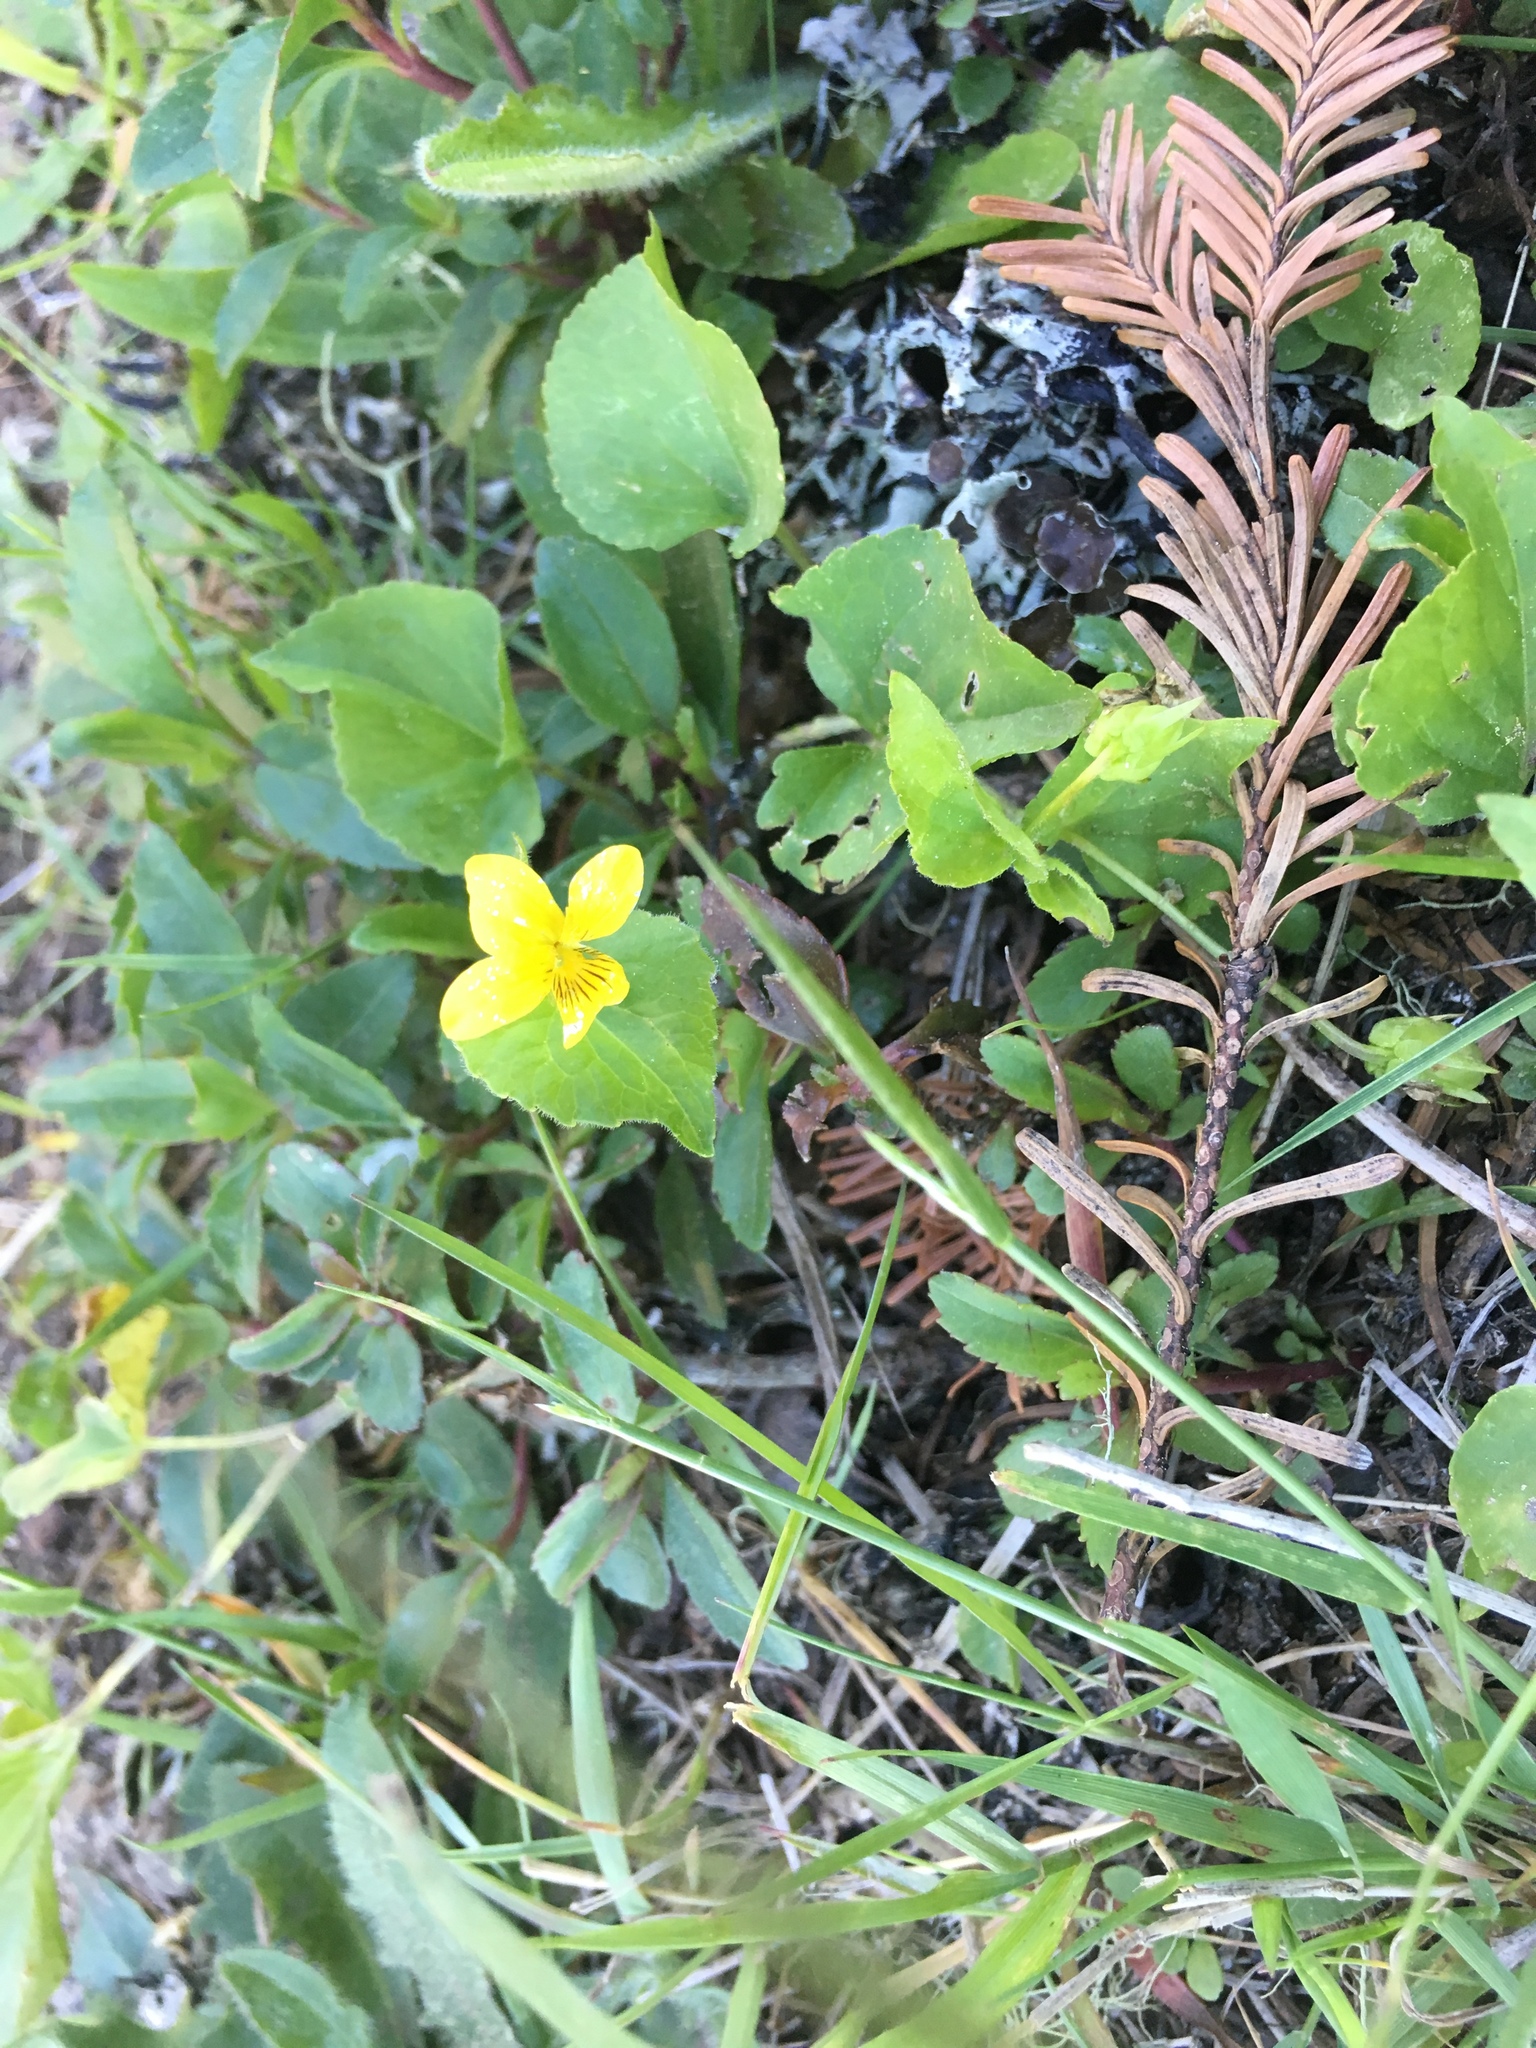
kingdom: Plantae
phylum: Tracheophyta
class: Magnoliopsida
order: Malpighiales
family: Violaceae
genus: Viola
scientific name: Viola glabella
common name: Stream violet
